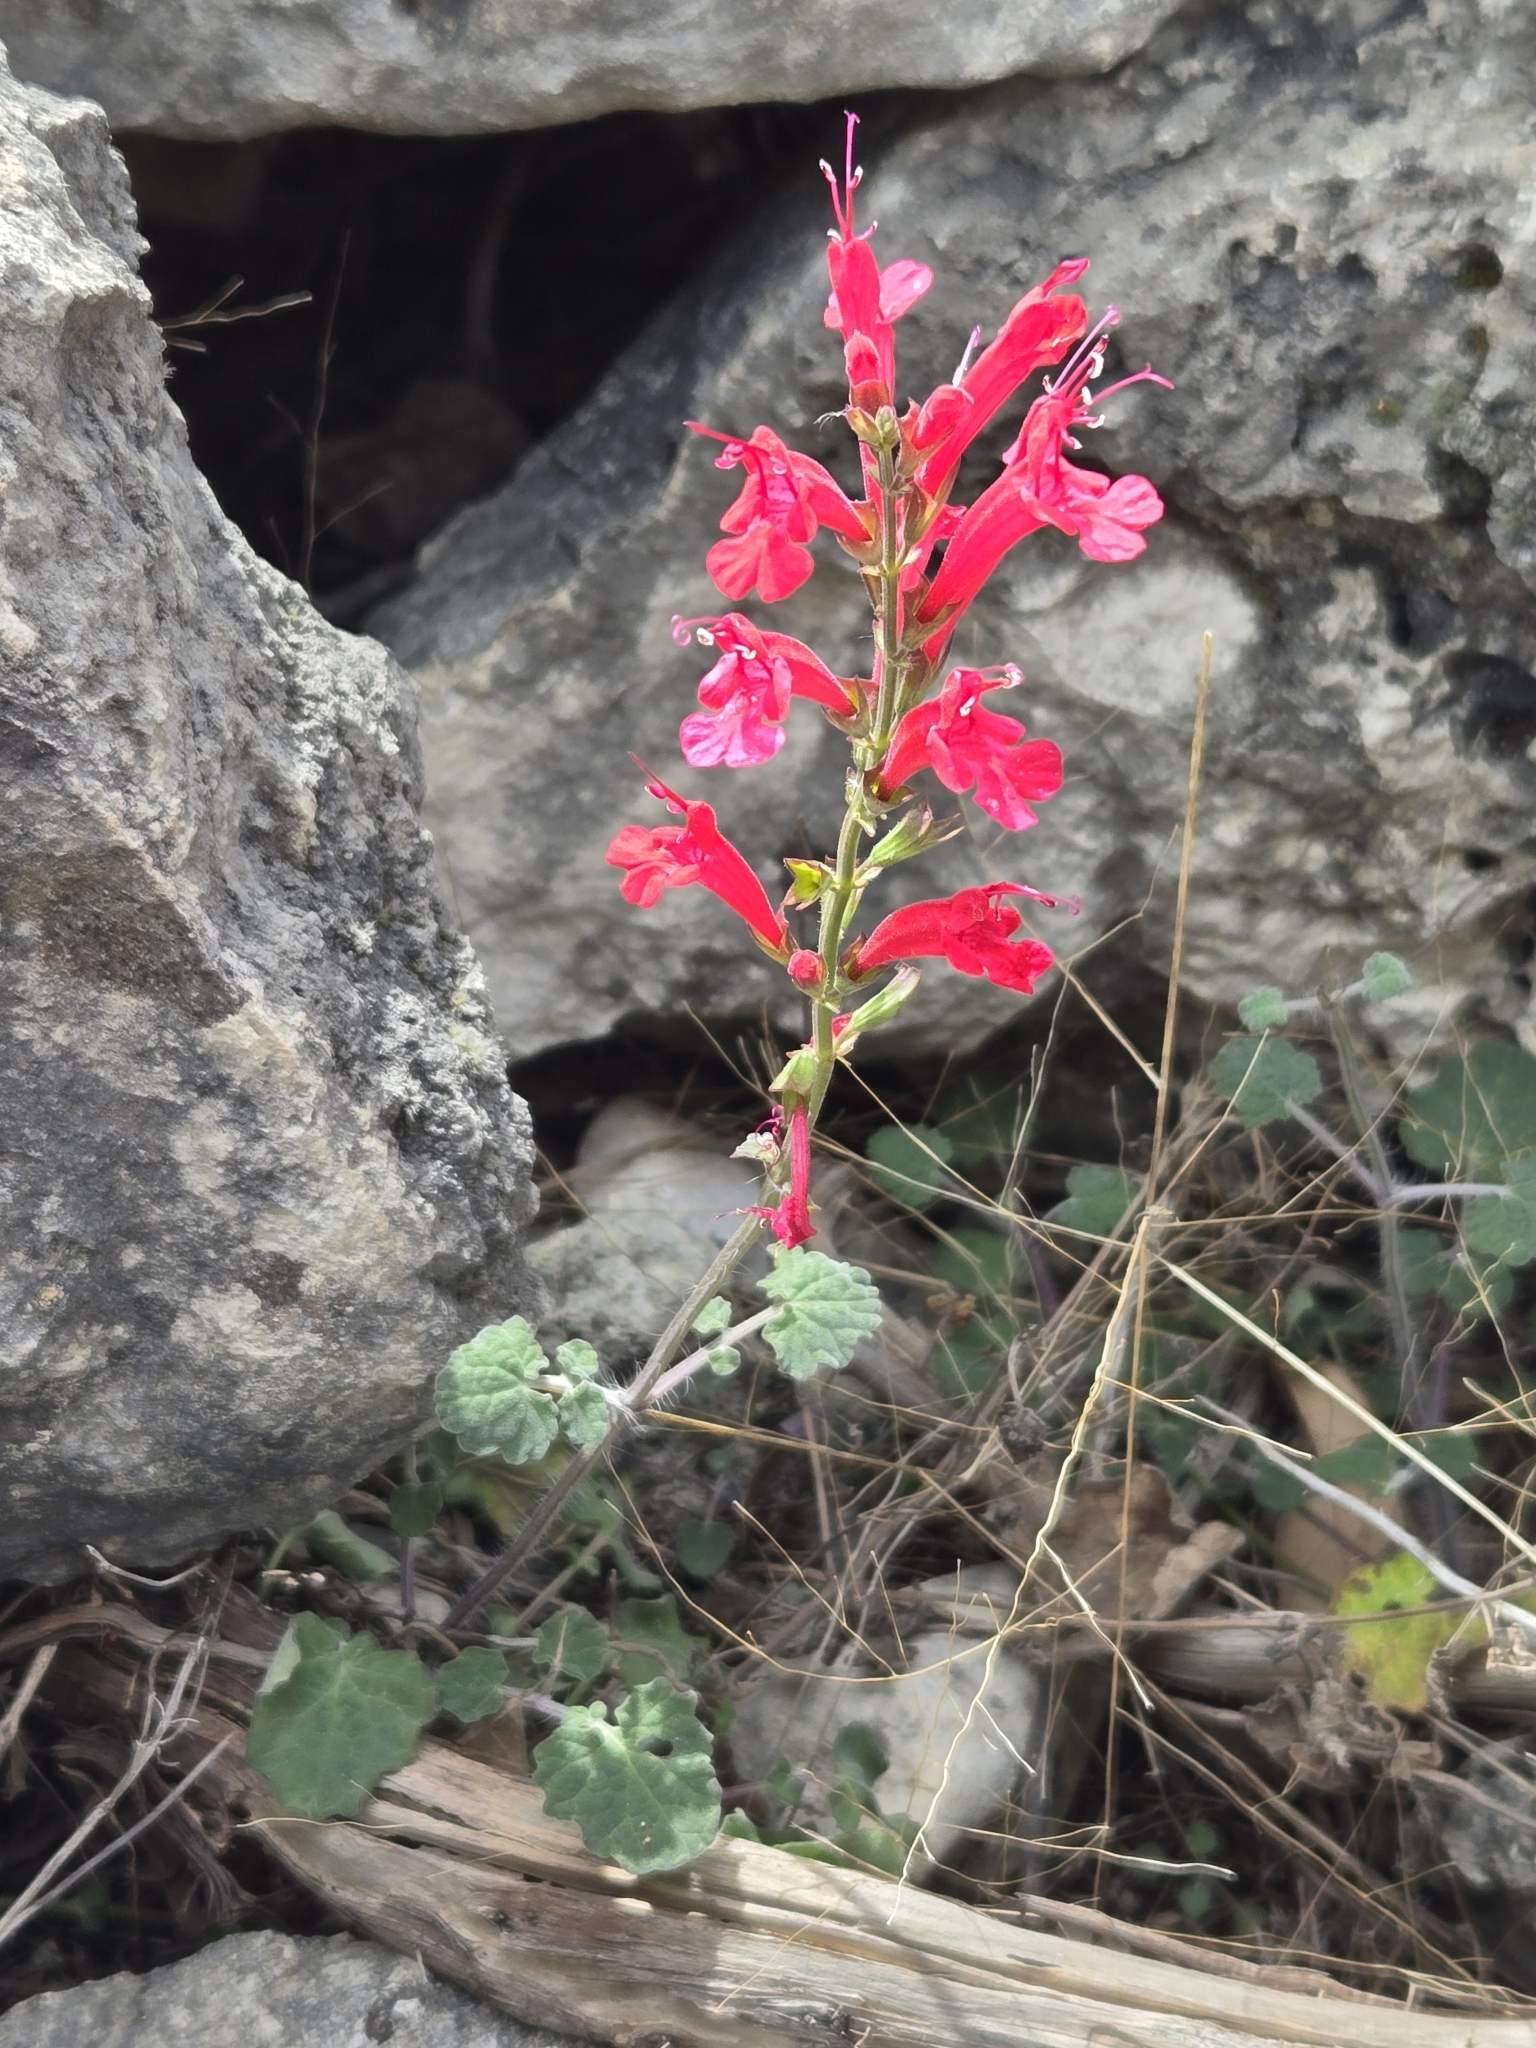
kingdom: Plantae
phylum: Tracheophyta
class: Magnoliopsida
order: Lamiales
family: Lamiaceae
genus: Salvia
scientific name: Salvia roemeriana
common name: Cedar sage
